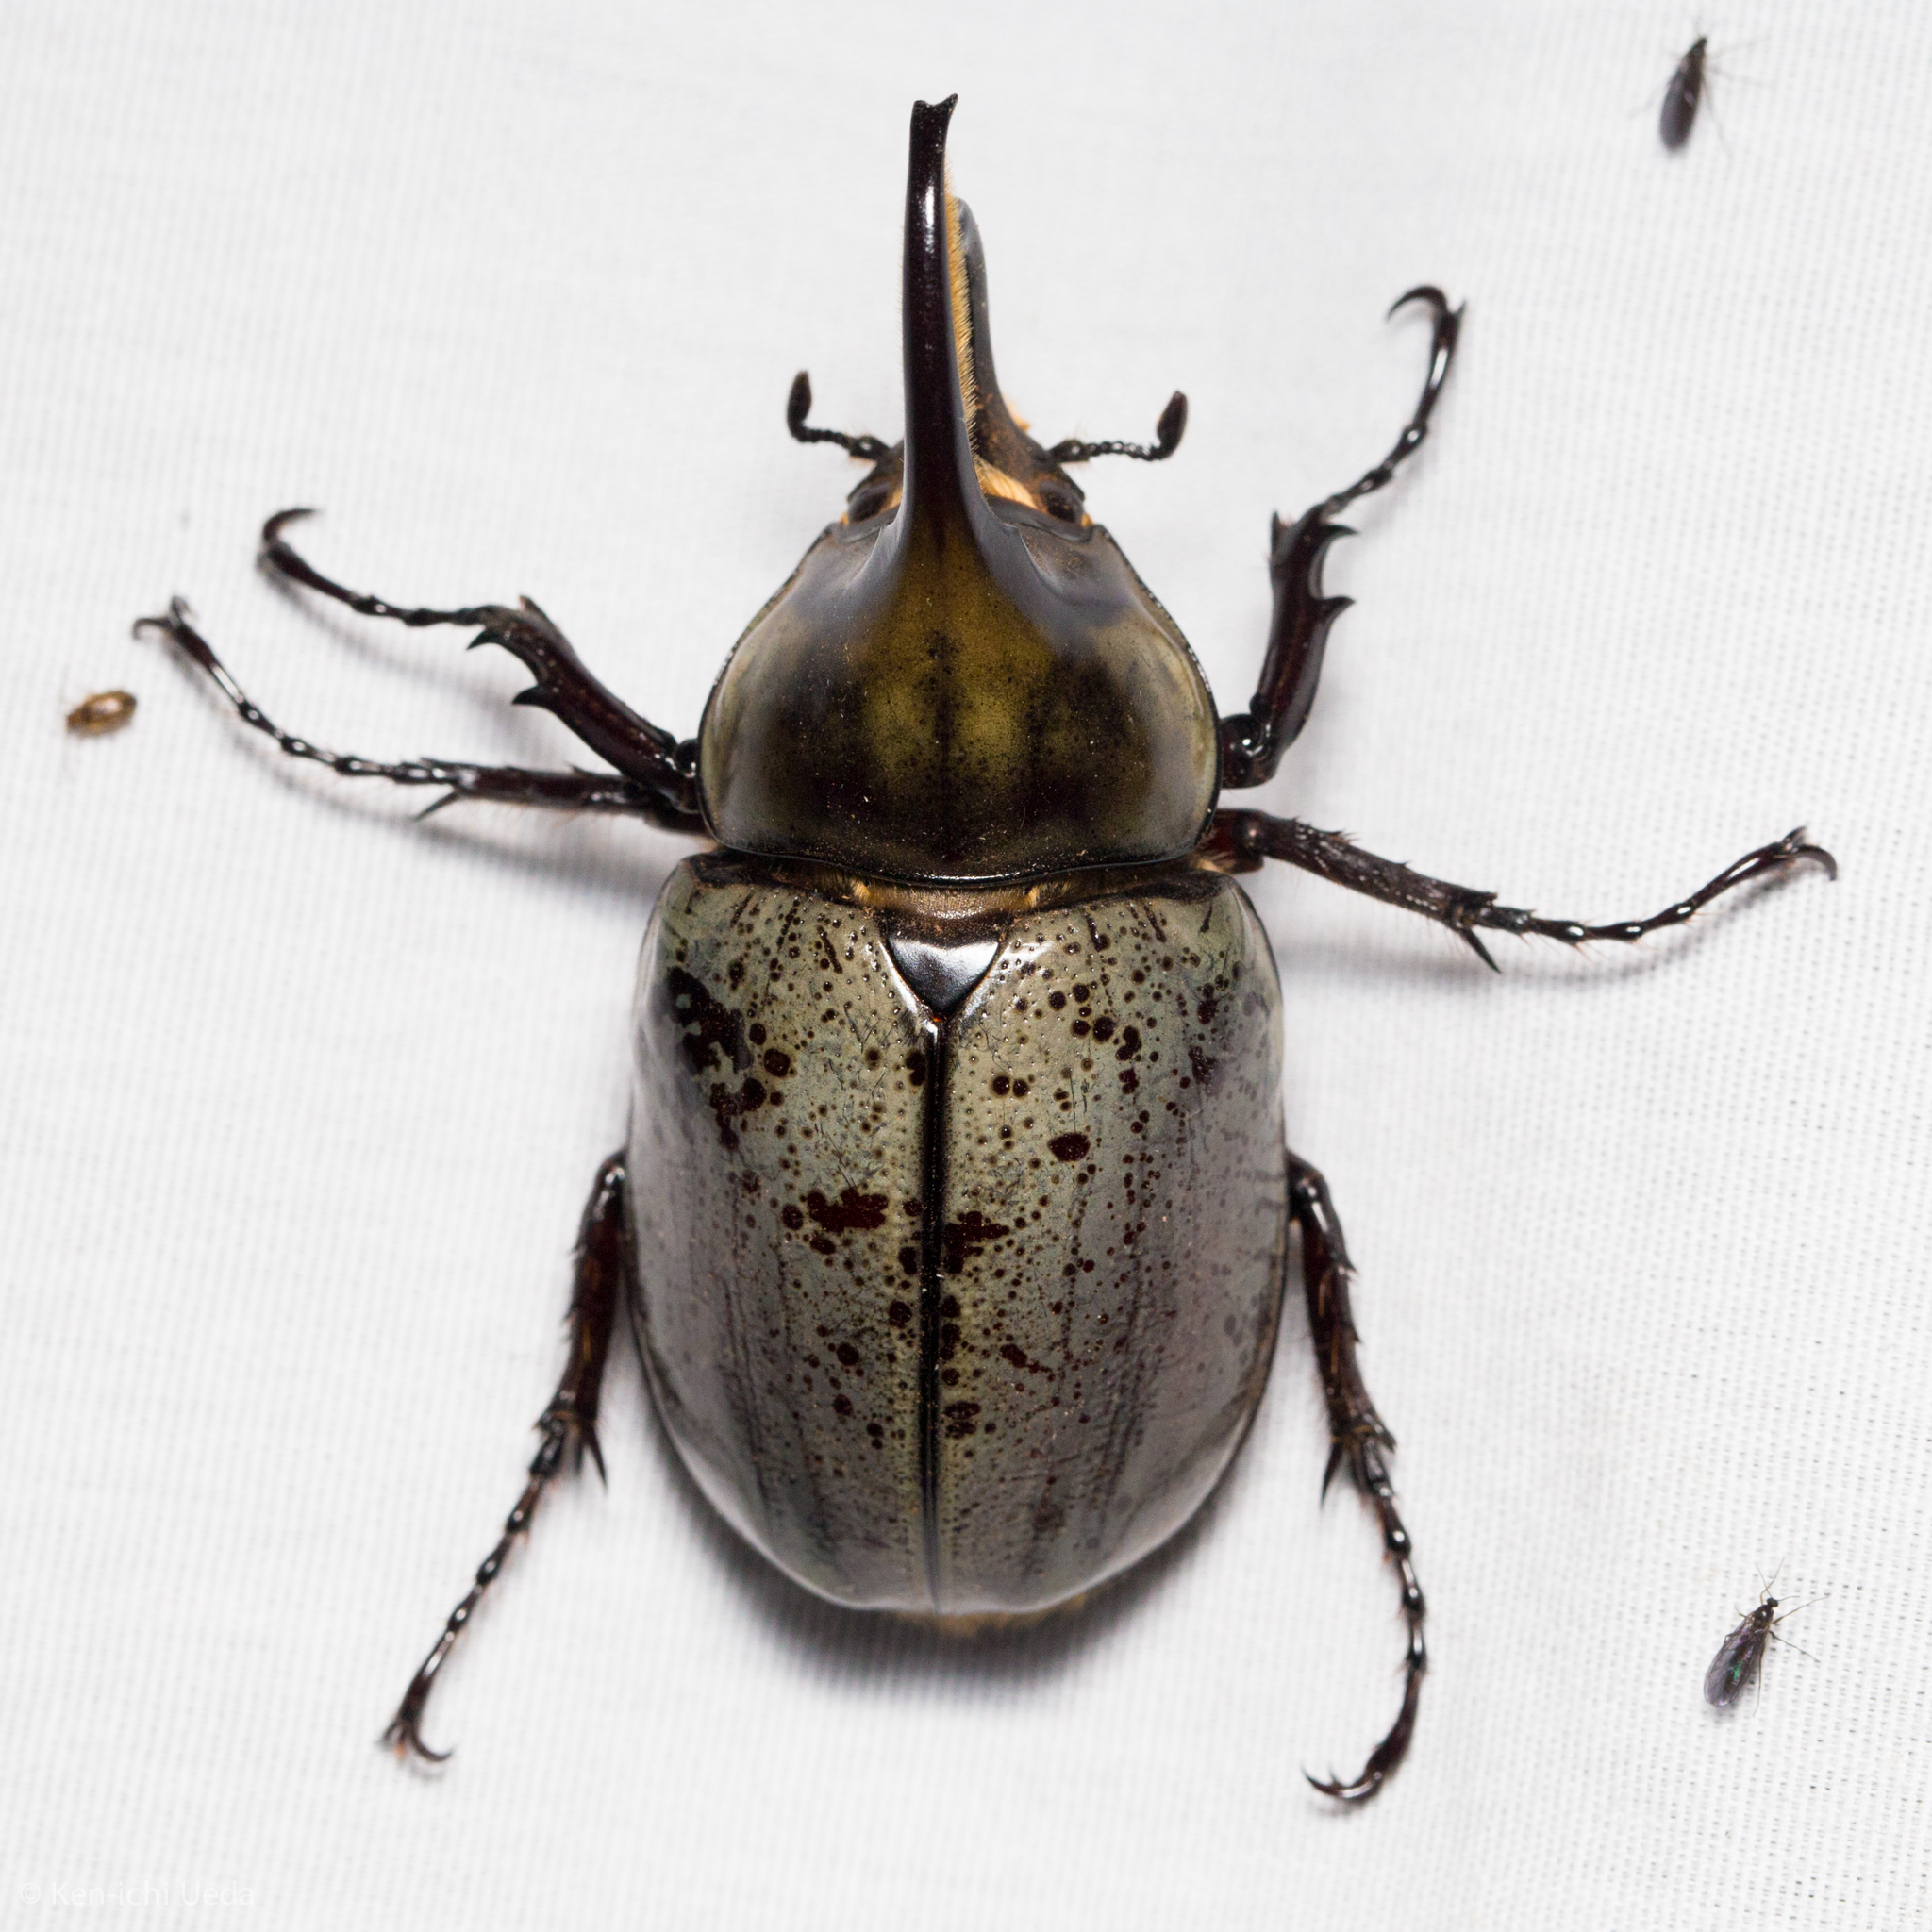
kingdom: Animalia
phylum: Arthropoda
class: Insecta
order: Coleoptera
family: Scarabaeidae
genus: Dynastes
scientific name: Dynastes grantii
